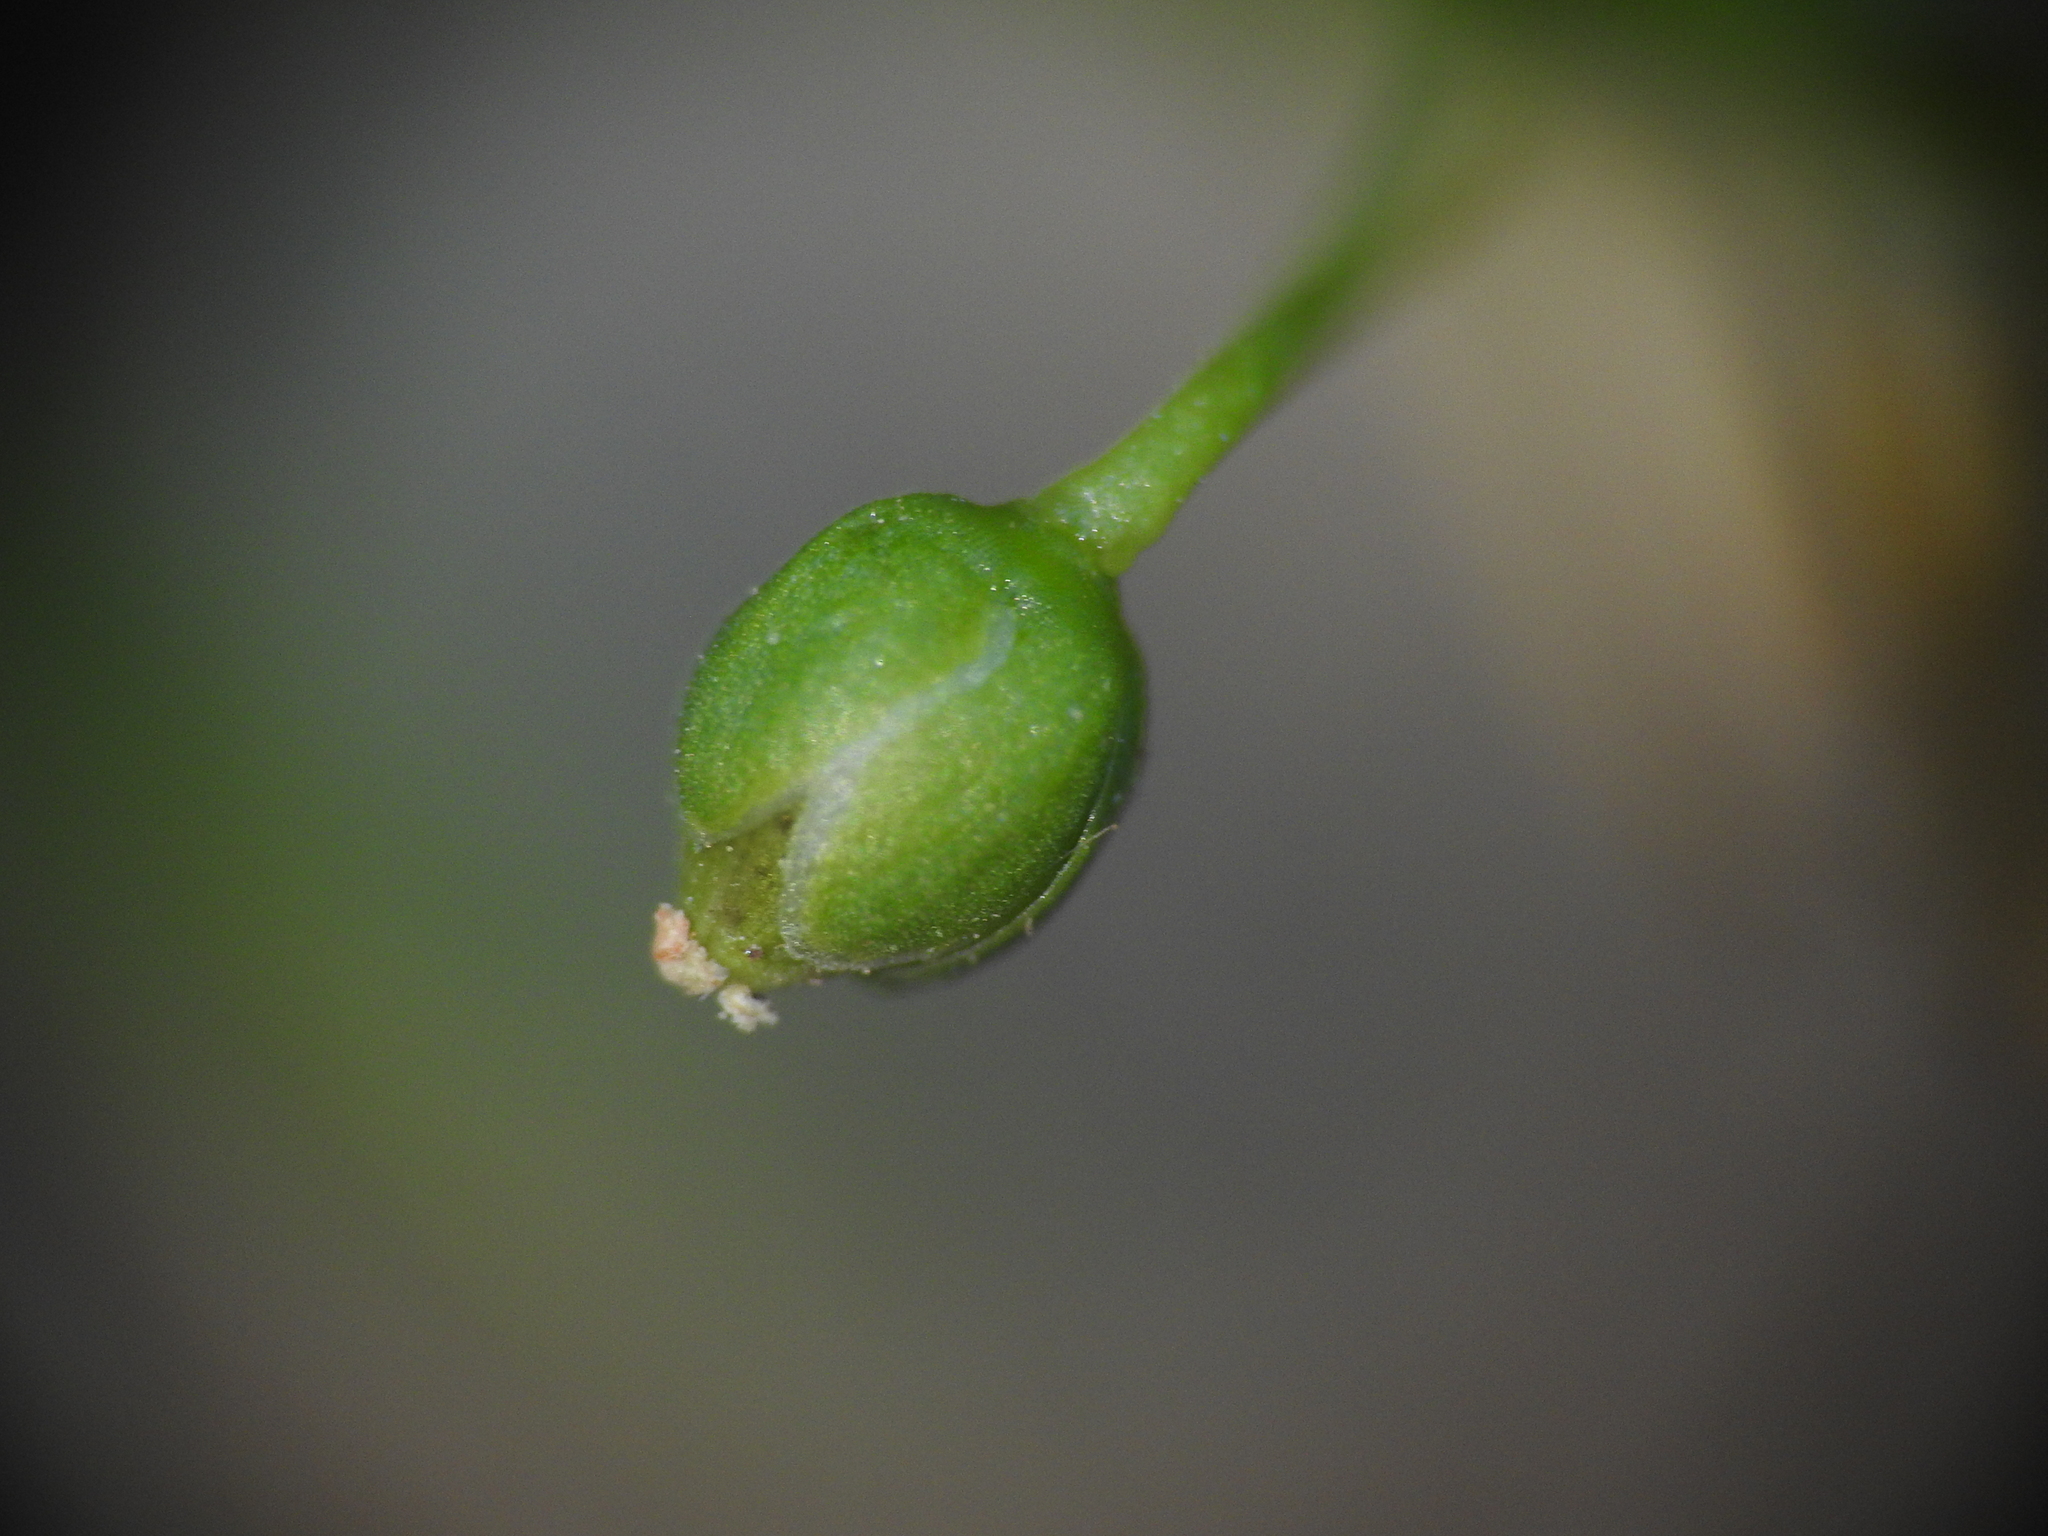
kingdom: Plantae
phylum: Tracheophyta
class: Magnoliopsida
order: Caryophyllales
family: Caryophyllaceae
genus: Sagina
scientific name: Sagina procumbens
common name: Procumbent pearlwort
